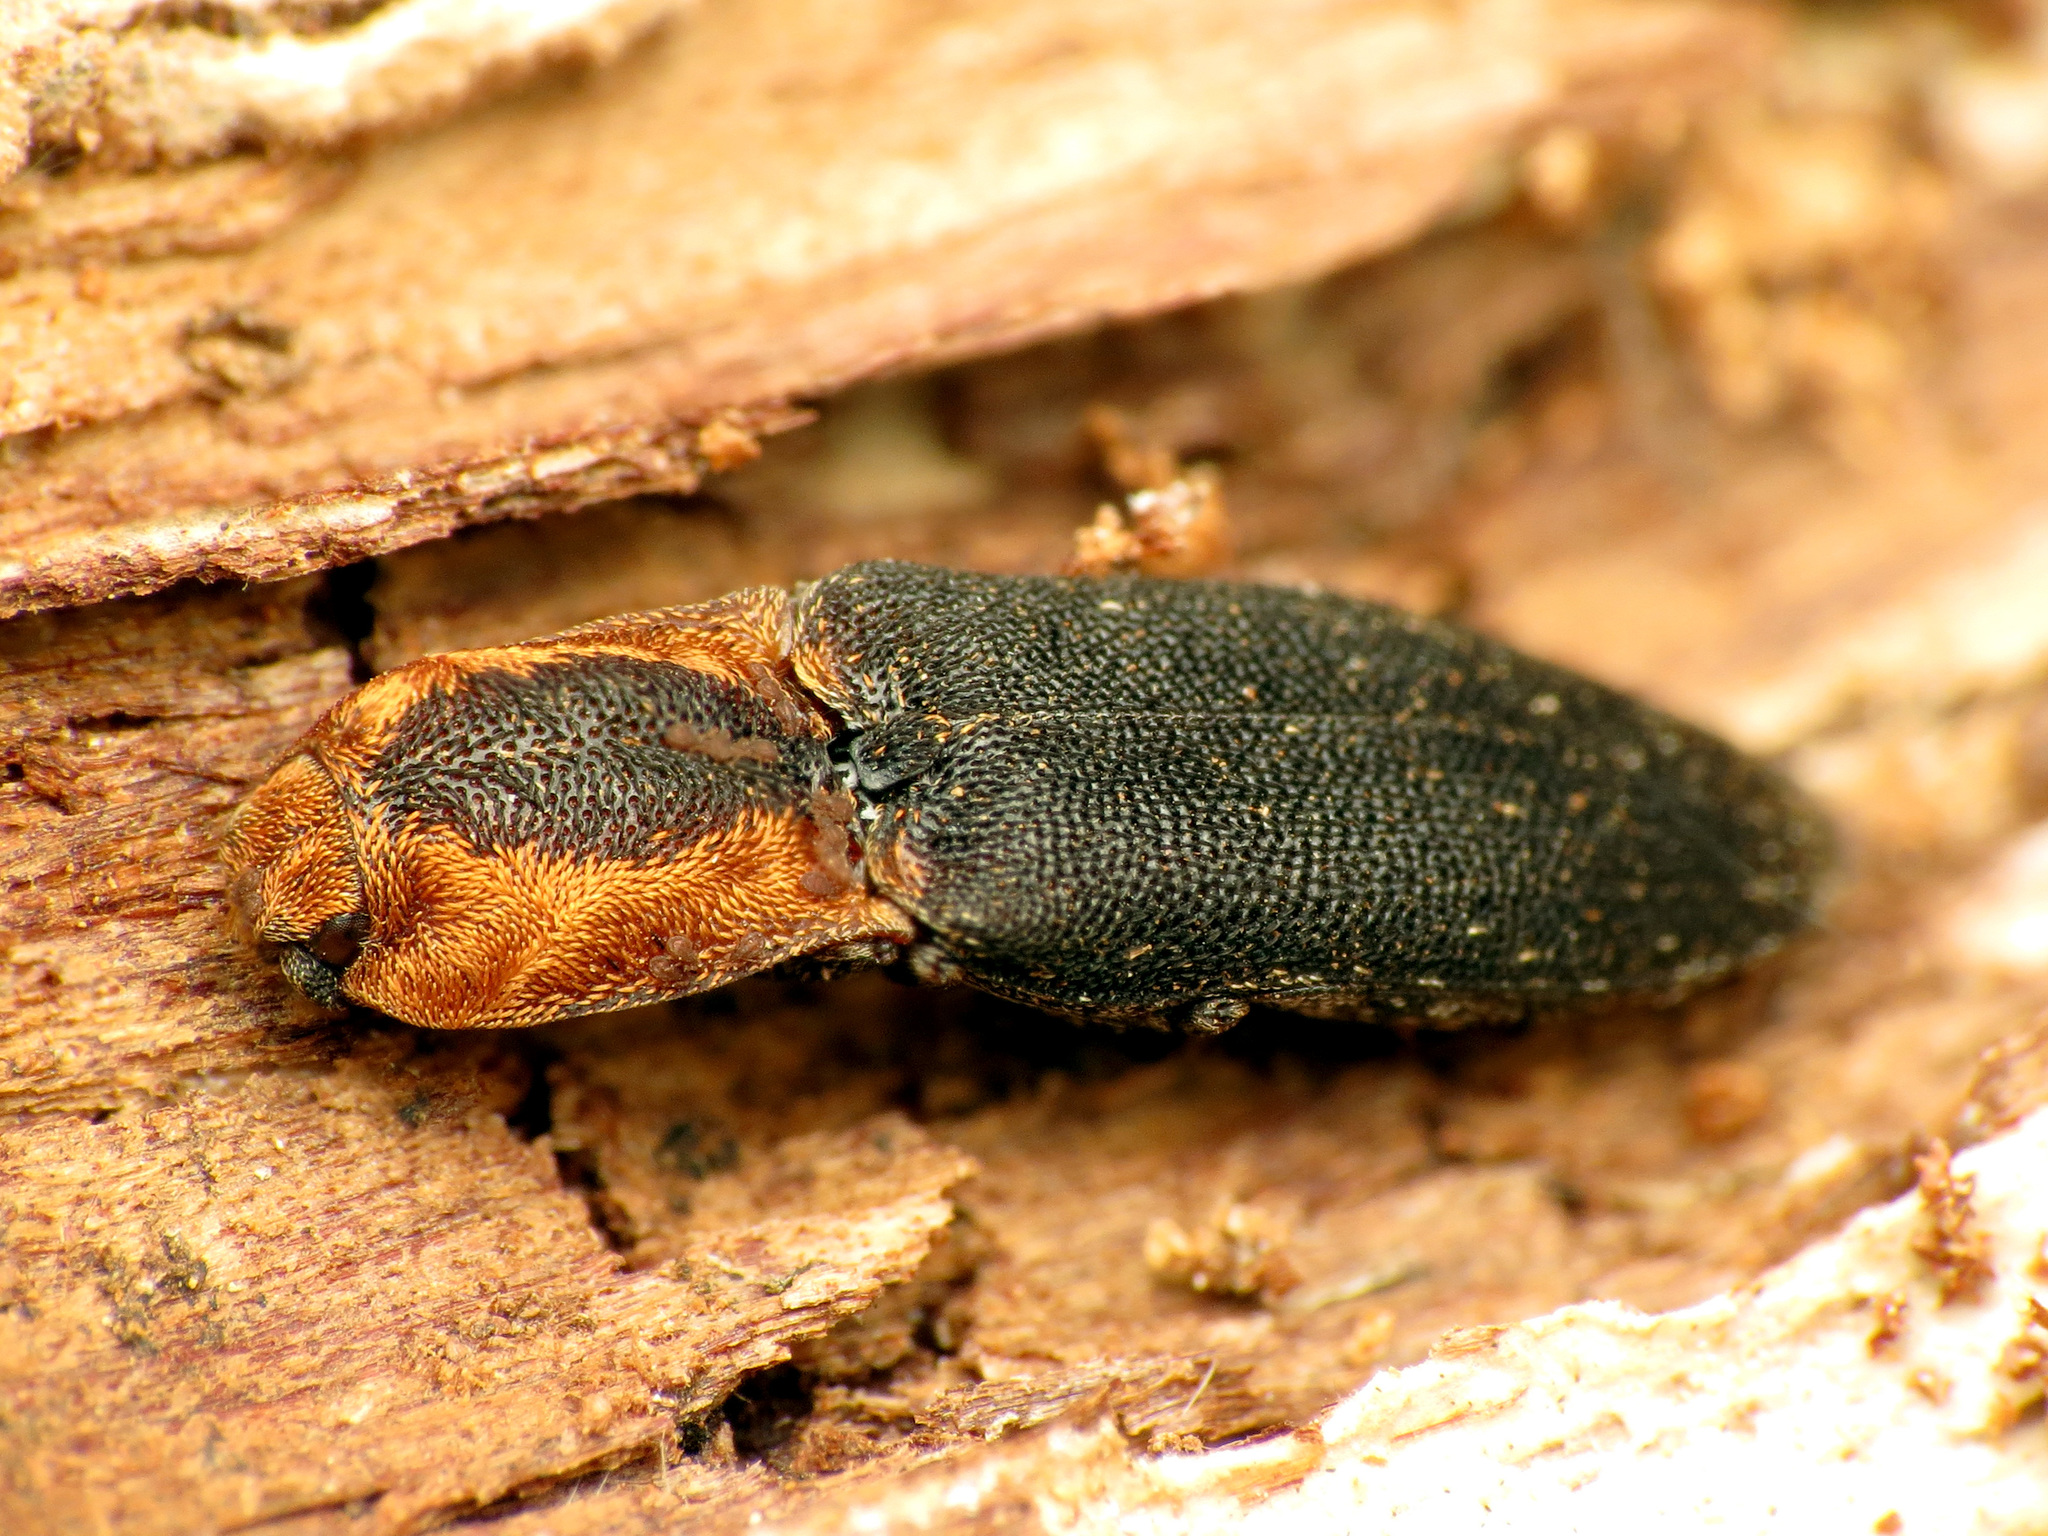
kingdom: Animalia
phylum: Arthropoda
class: Insecta
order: Coleoptera
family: Elateridae
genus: Lacon
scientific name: Lacon discoideus
